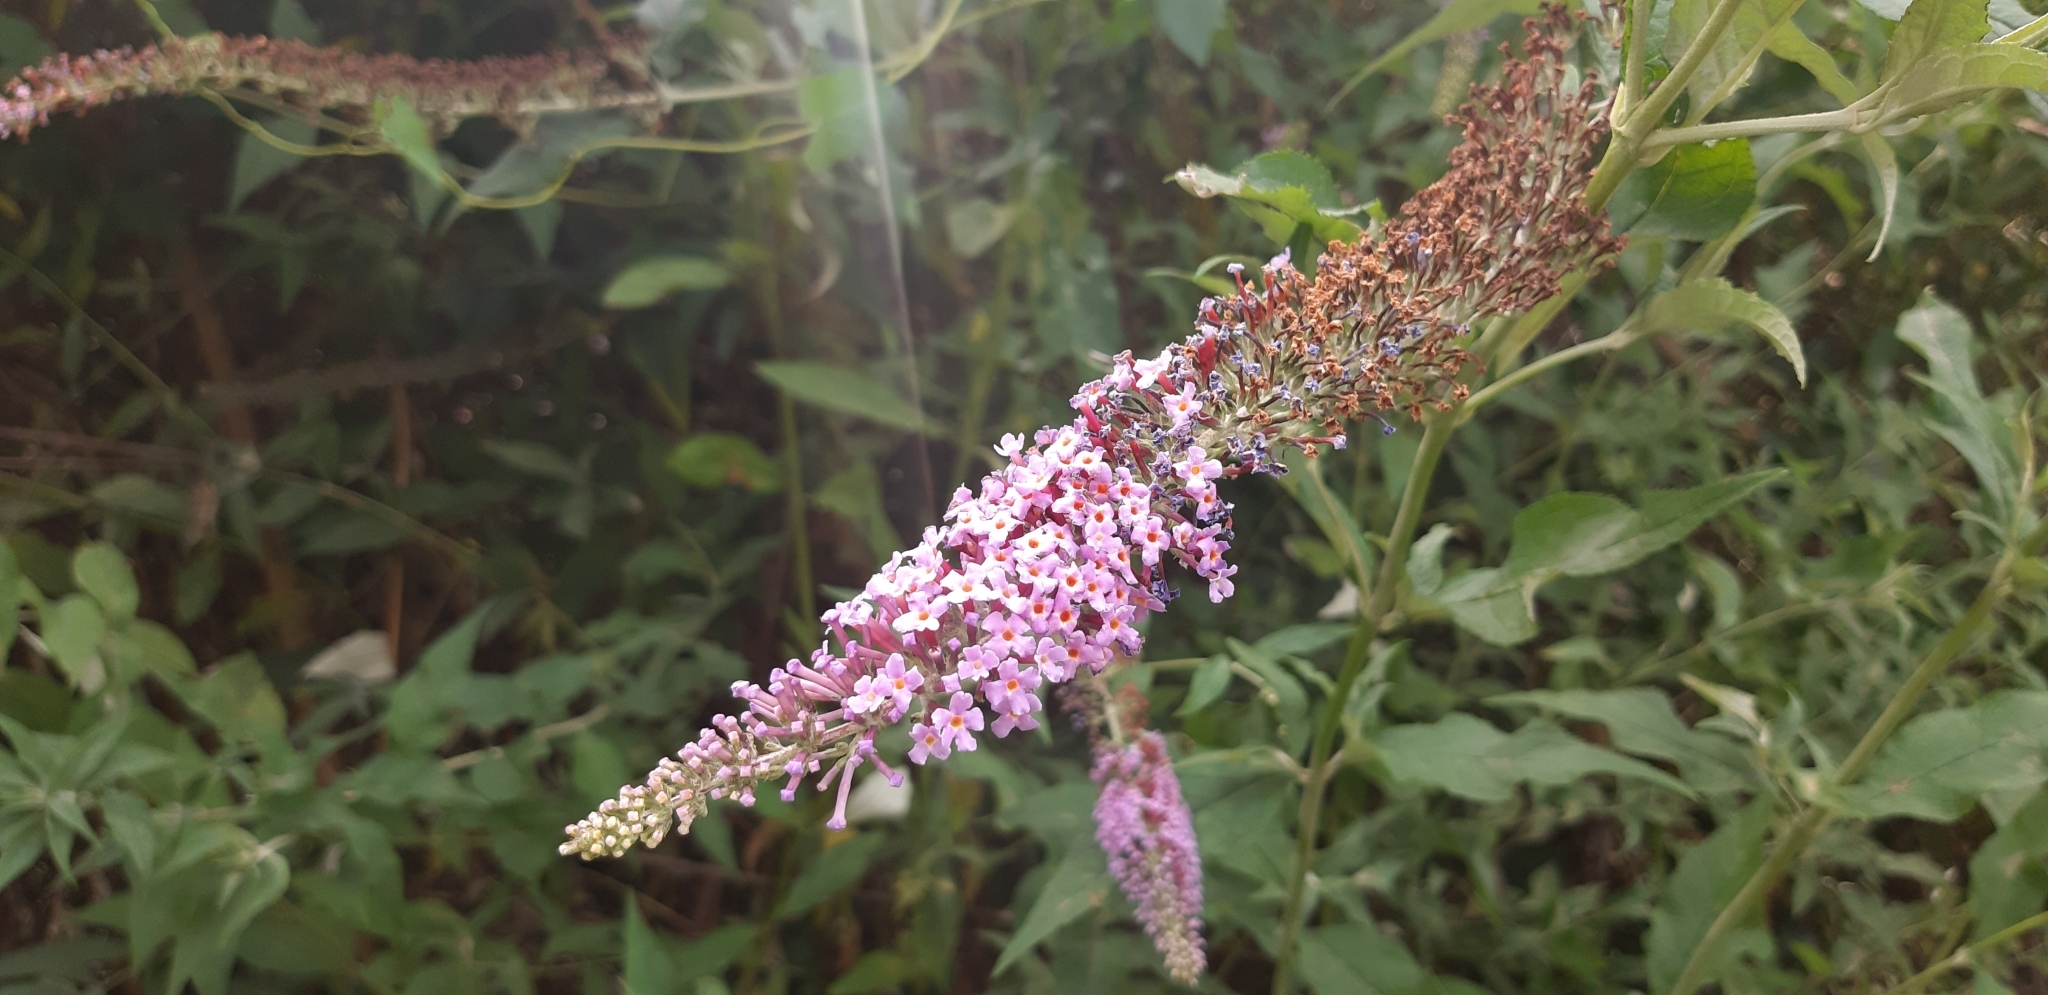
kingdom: Plantae
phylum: Tracheophyta
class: Magnoliopsida
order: Lamiales
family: Scrophulariaceae
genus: Buddleja
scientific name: Buddleja davidii
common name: Butterfly-bush
